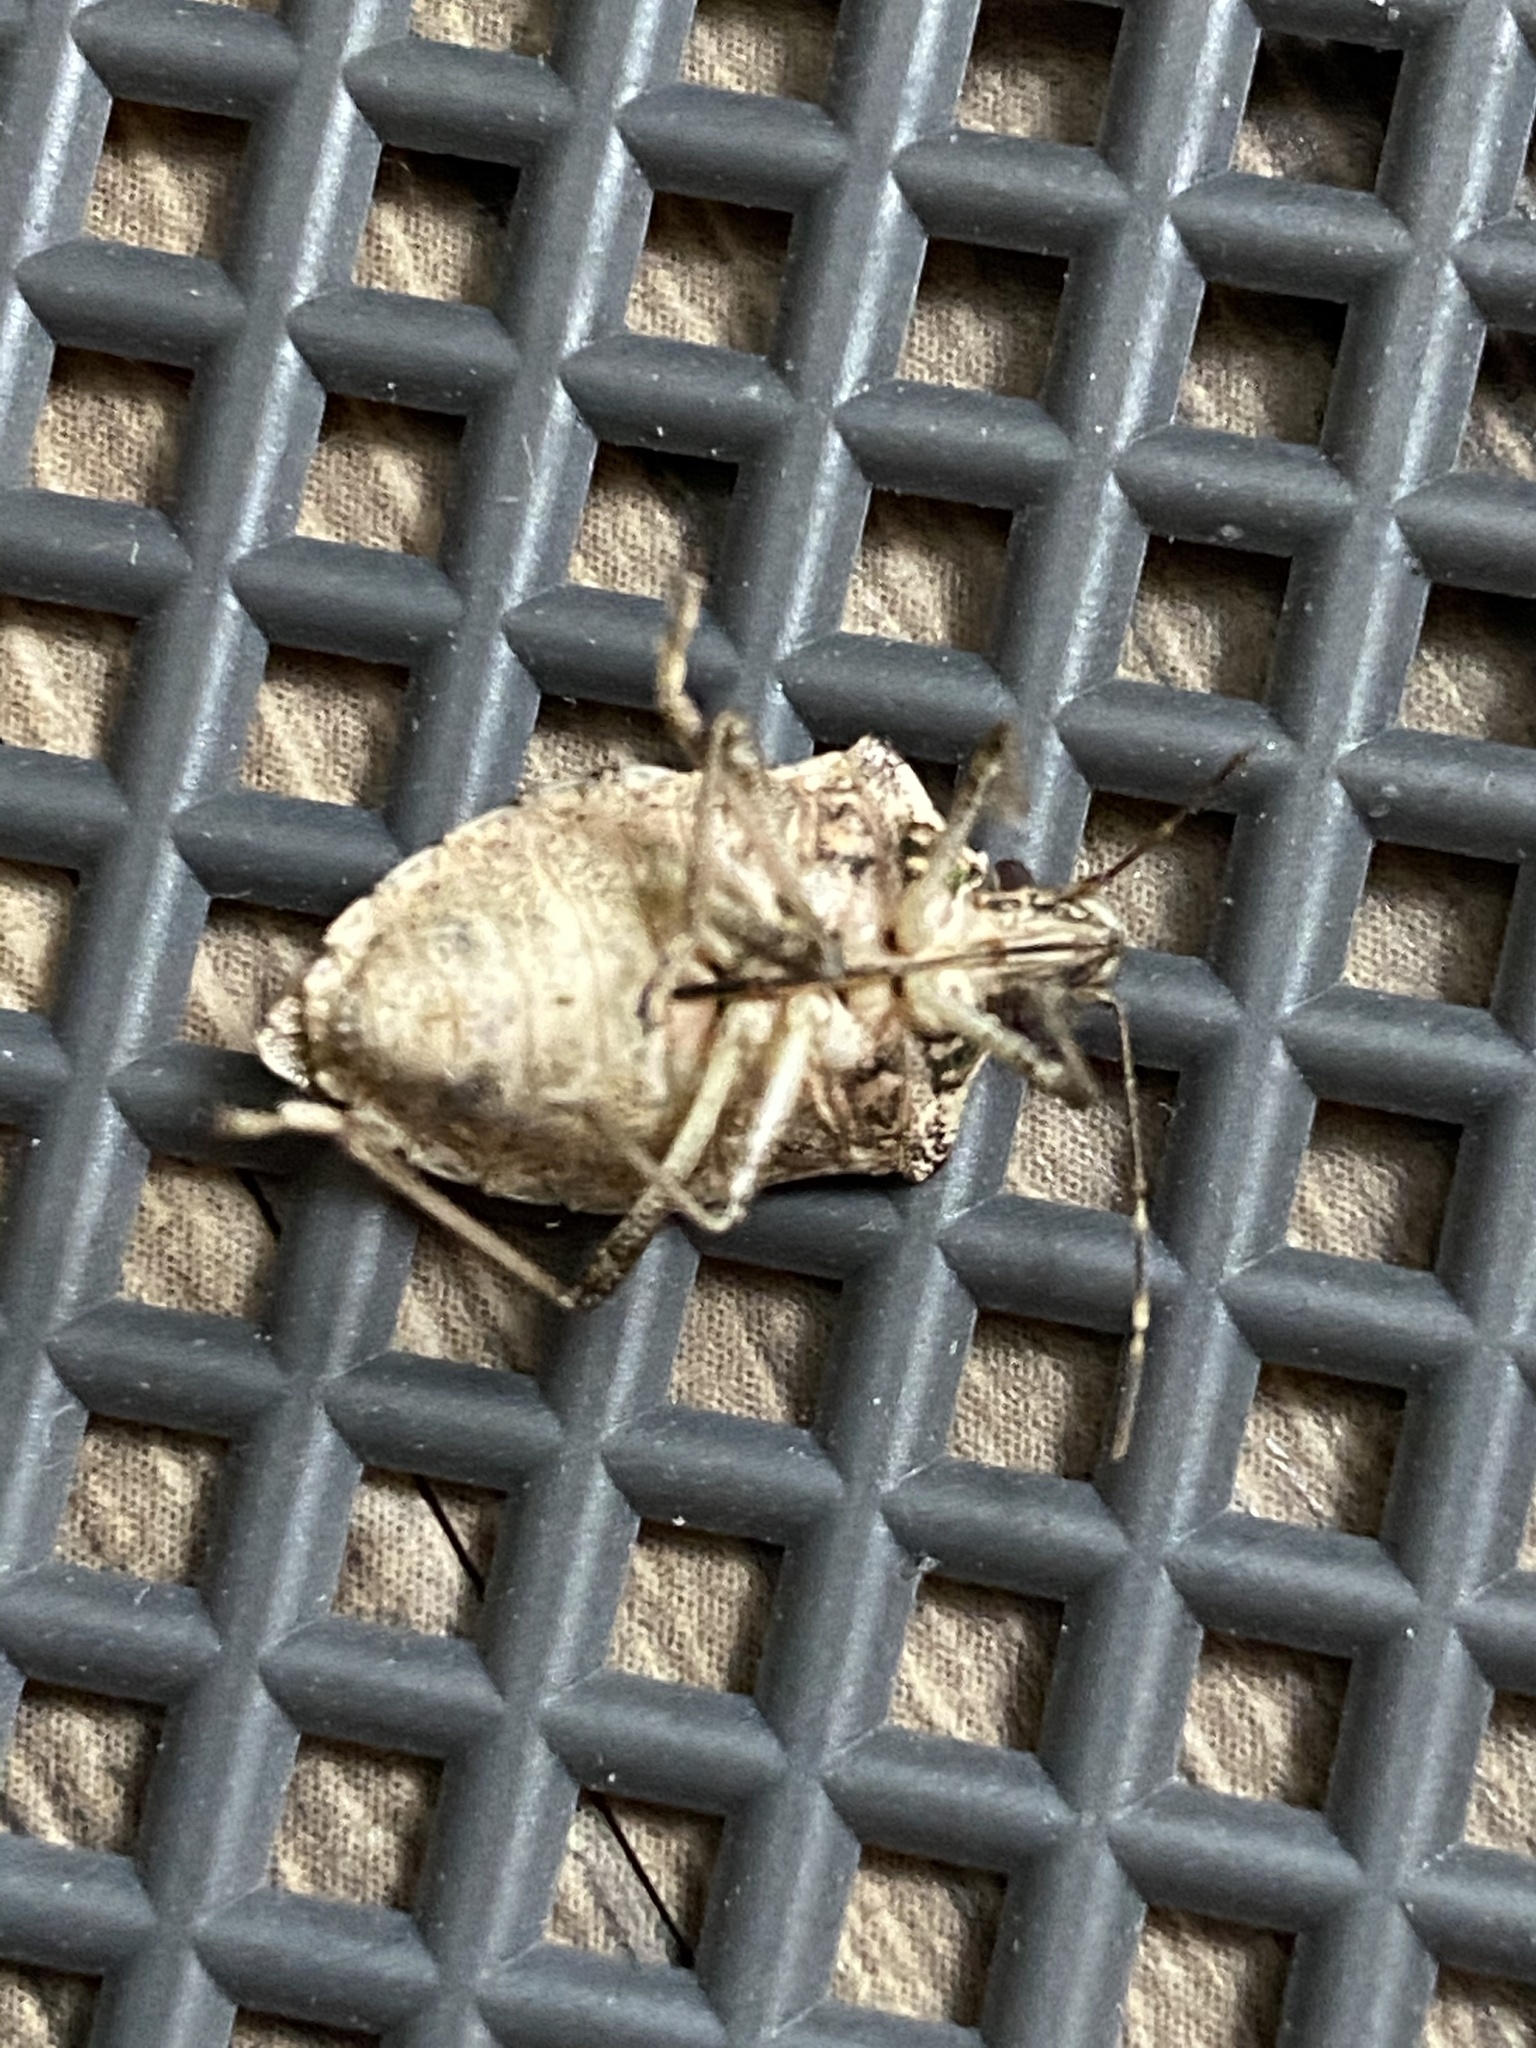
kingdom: Animalia
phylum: Arthropoda
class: Insecta
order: Hemiptera
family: Pentatomidae
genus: Halyomorpha
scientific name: Halyomorpha halys
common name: Brown marmorated stink bug
